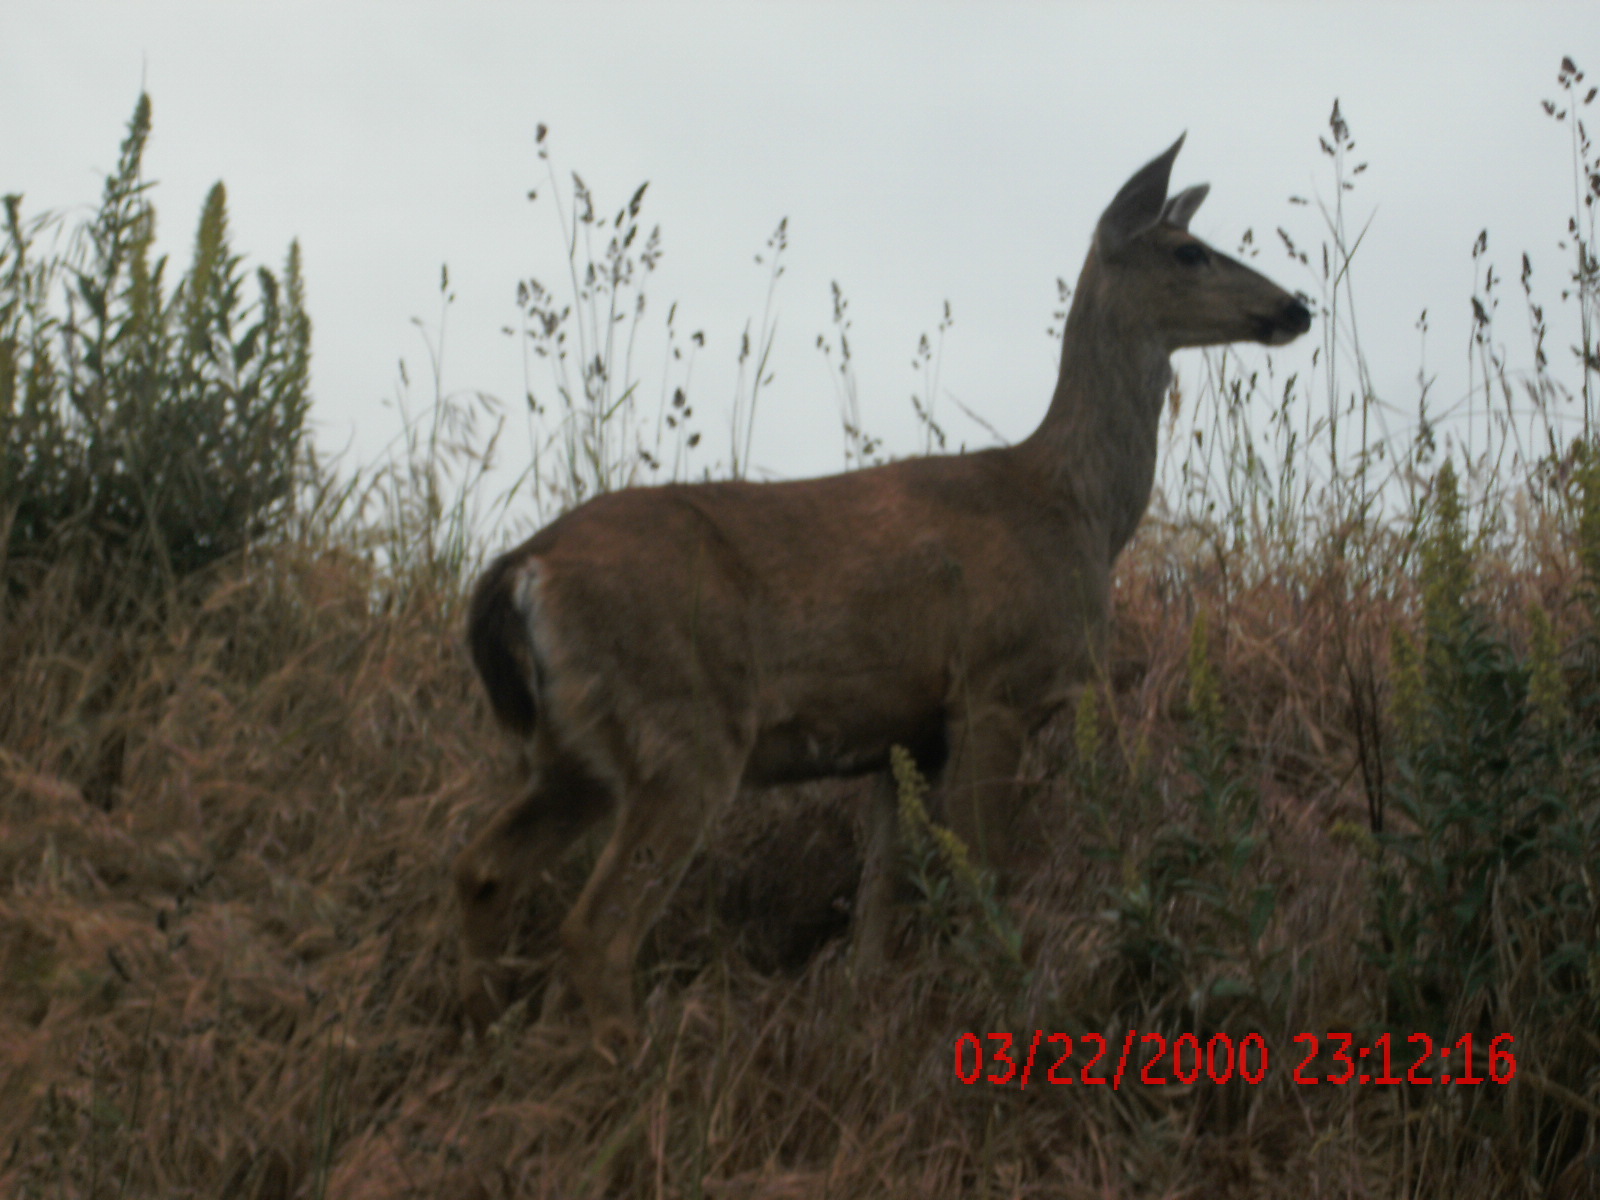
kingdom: Animalia
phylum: Chordata
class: Mammalia
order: Artiodactyla
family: Cervidae
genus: Odocoileus
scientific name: Odocoileus hemionus
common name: Mule deer
